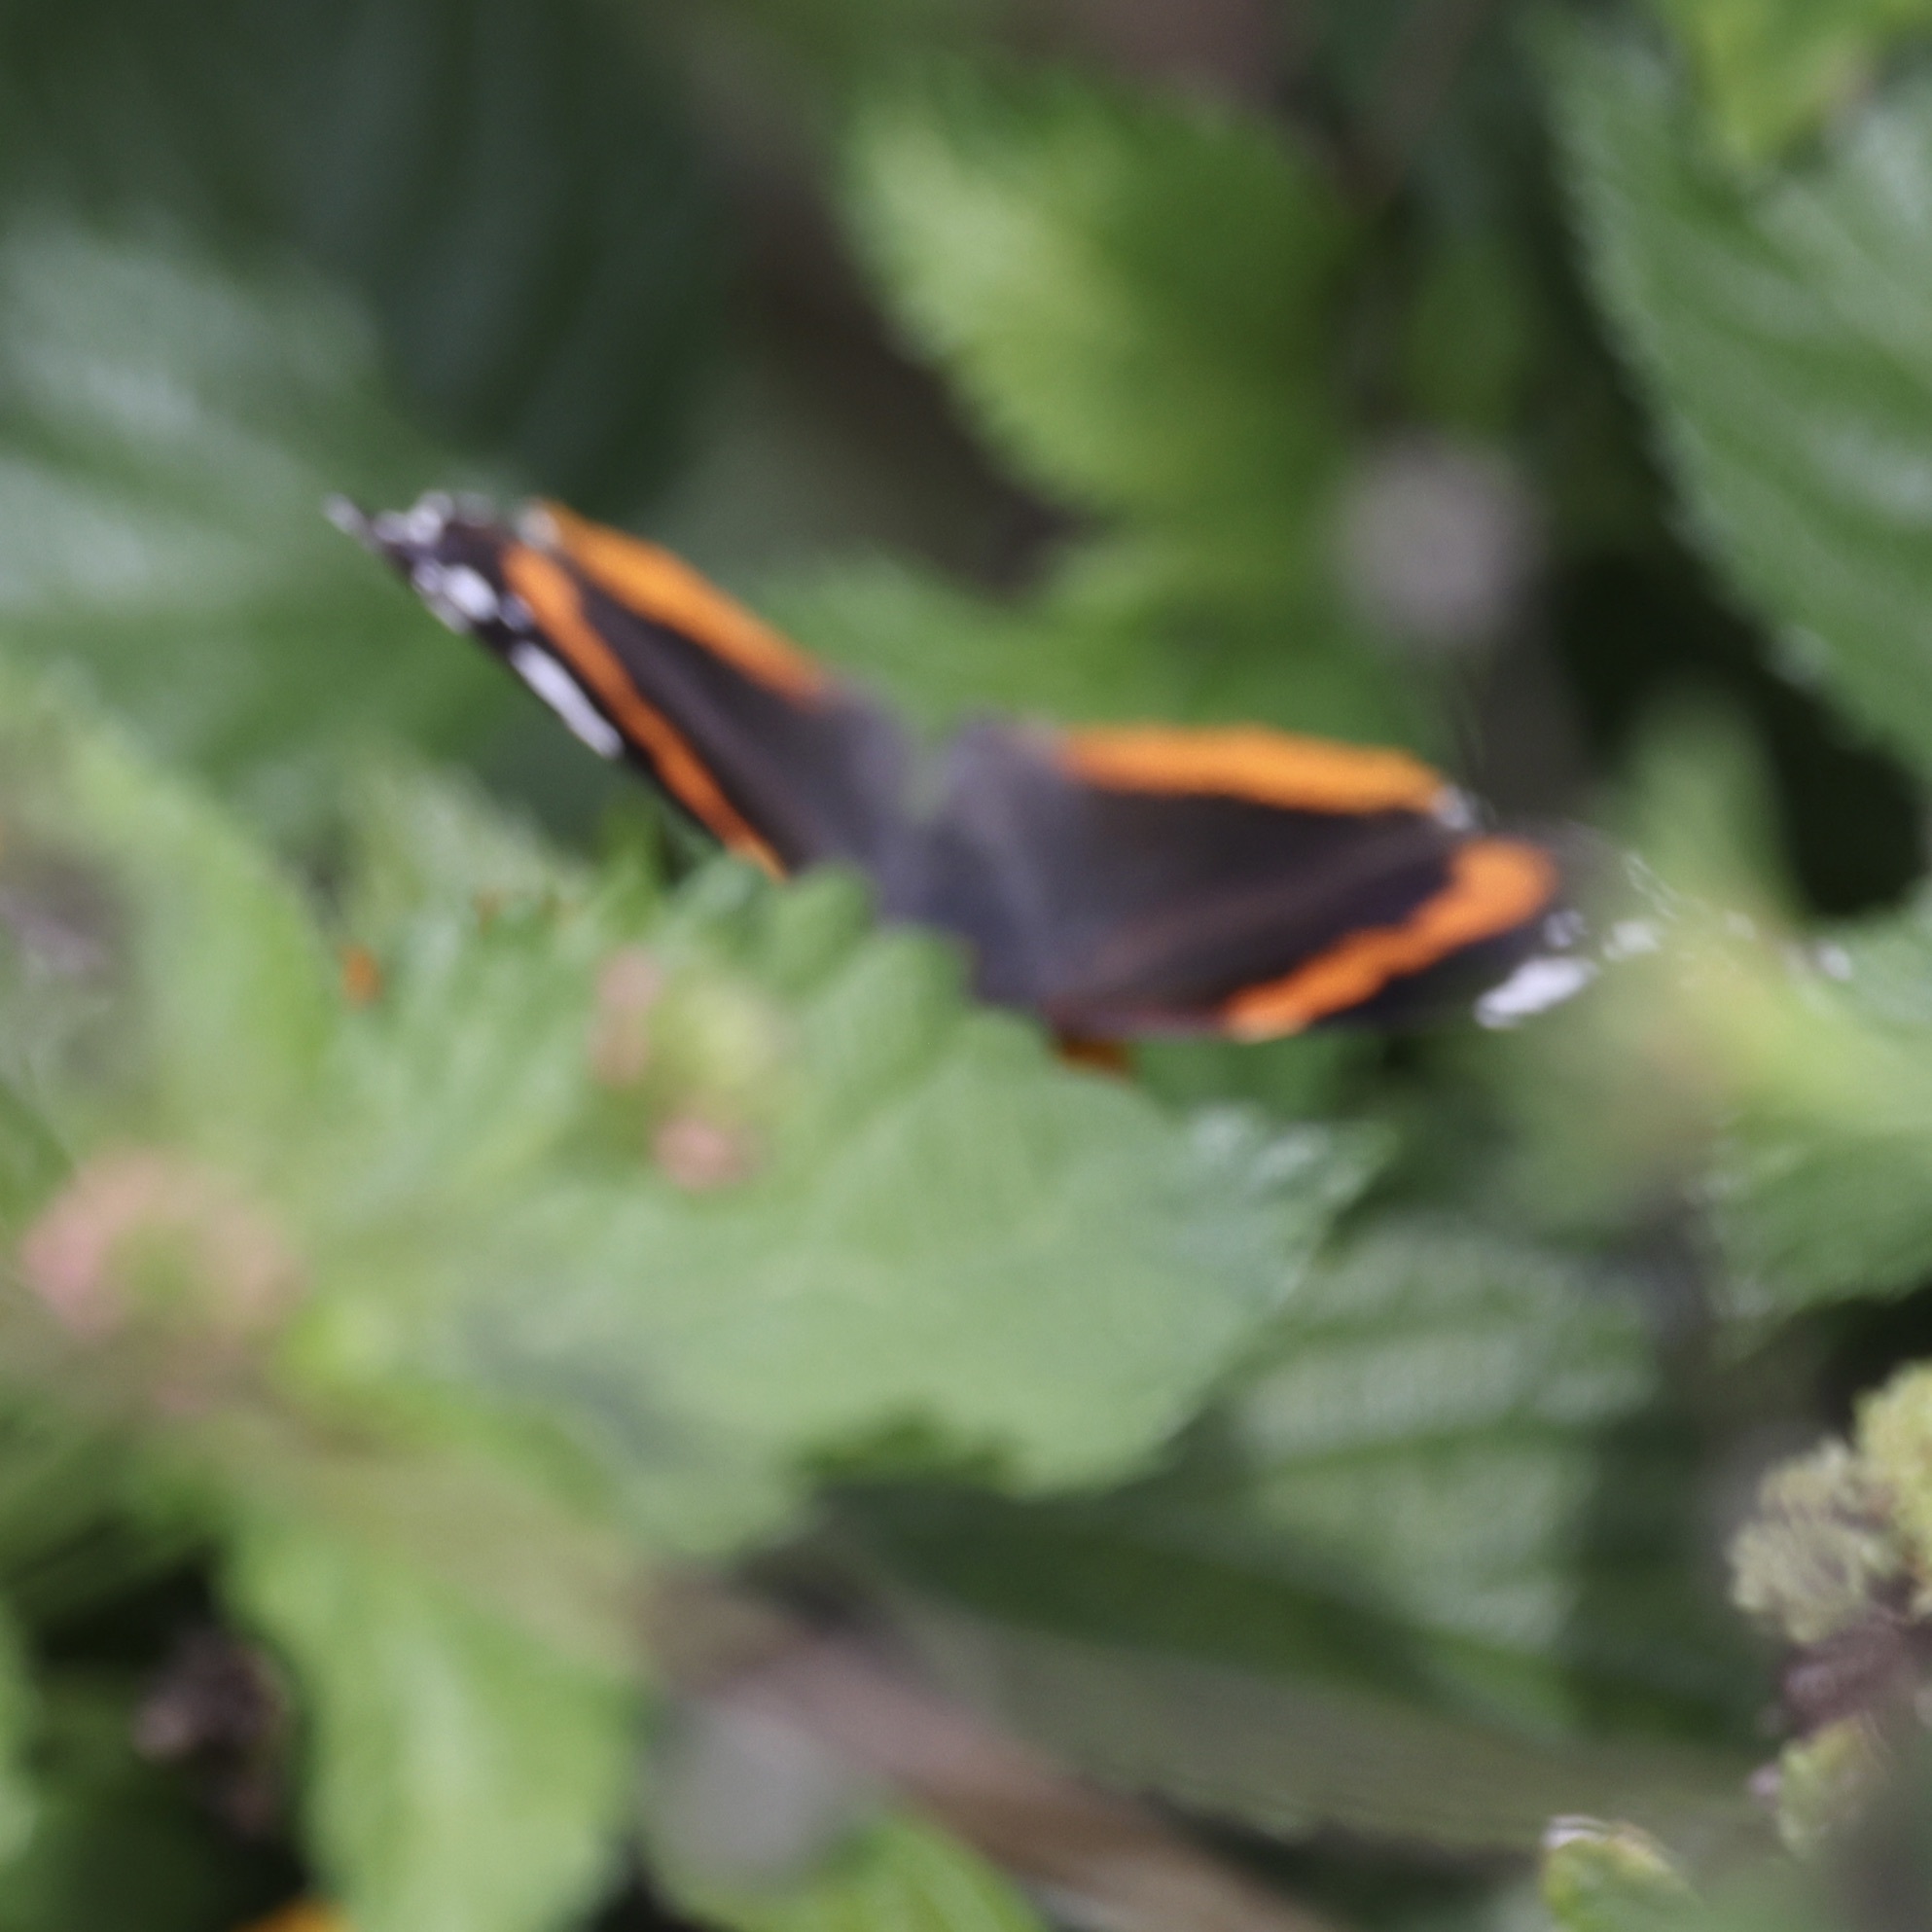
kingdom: Animalia
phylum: Arthropoda
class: Insecta
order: Lepidoptera
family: Nymphalidae
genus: Vanessa
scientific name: Vanessa atalanta
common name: Red admiral
